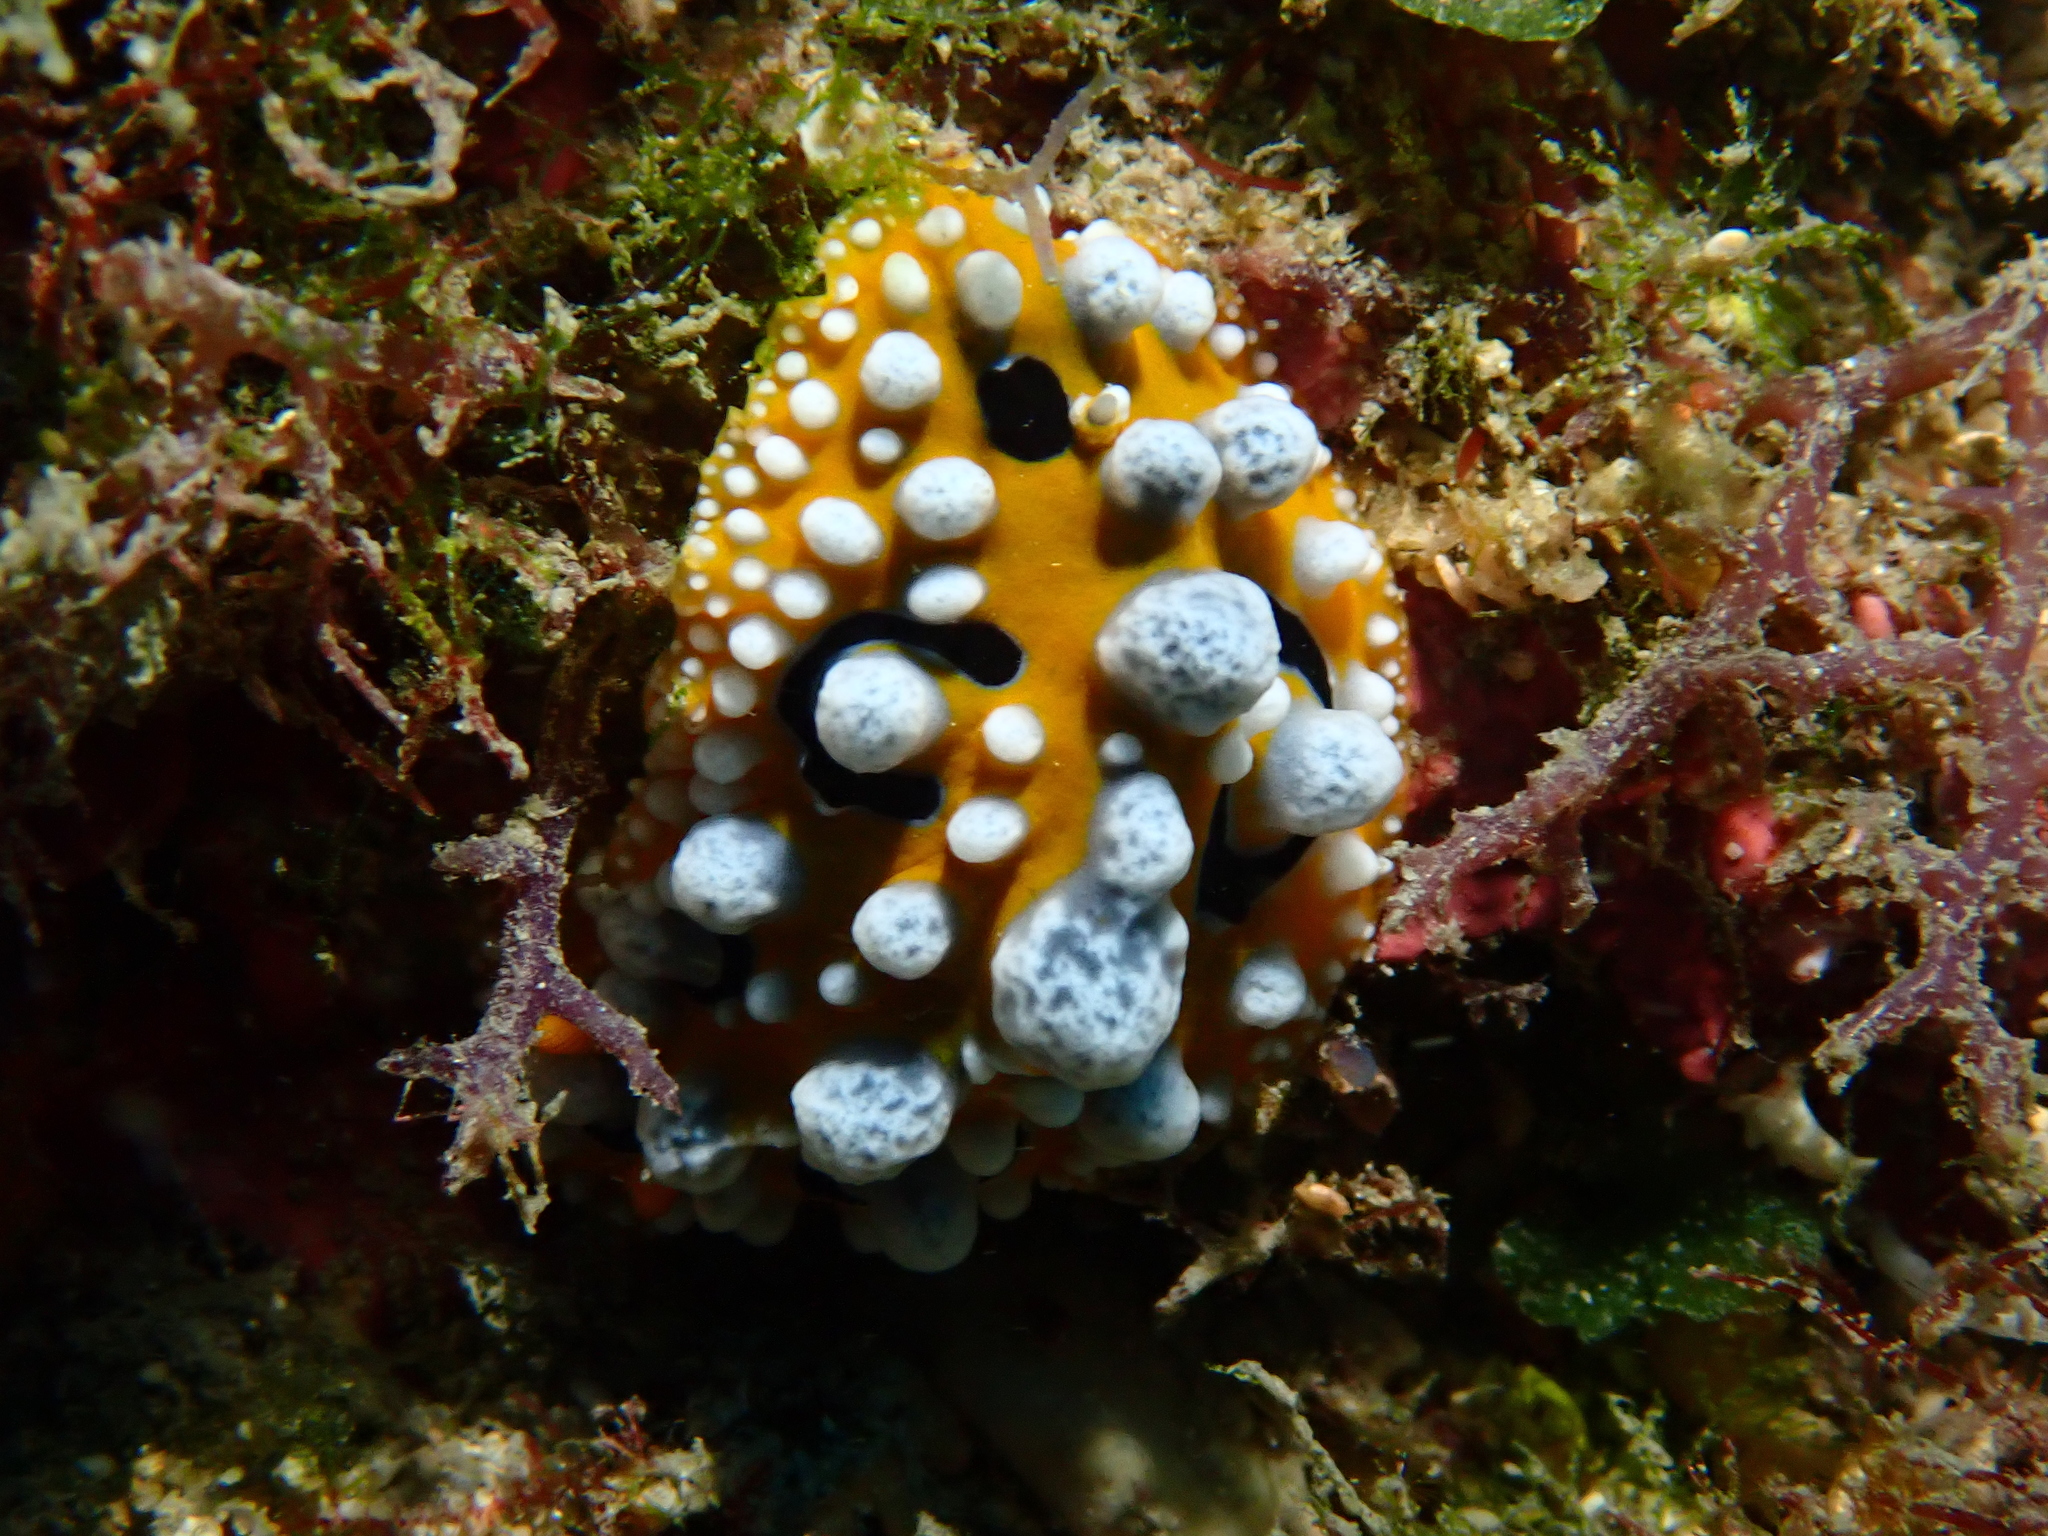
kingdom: Animalia
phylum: Mollusca
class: Gastropoda
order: Nudibranchia
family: Phyllidiidae
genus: Phyllidia
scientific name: Phyllidia ocellata
